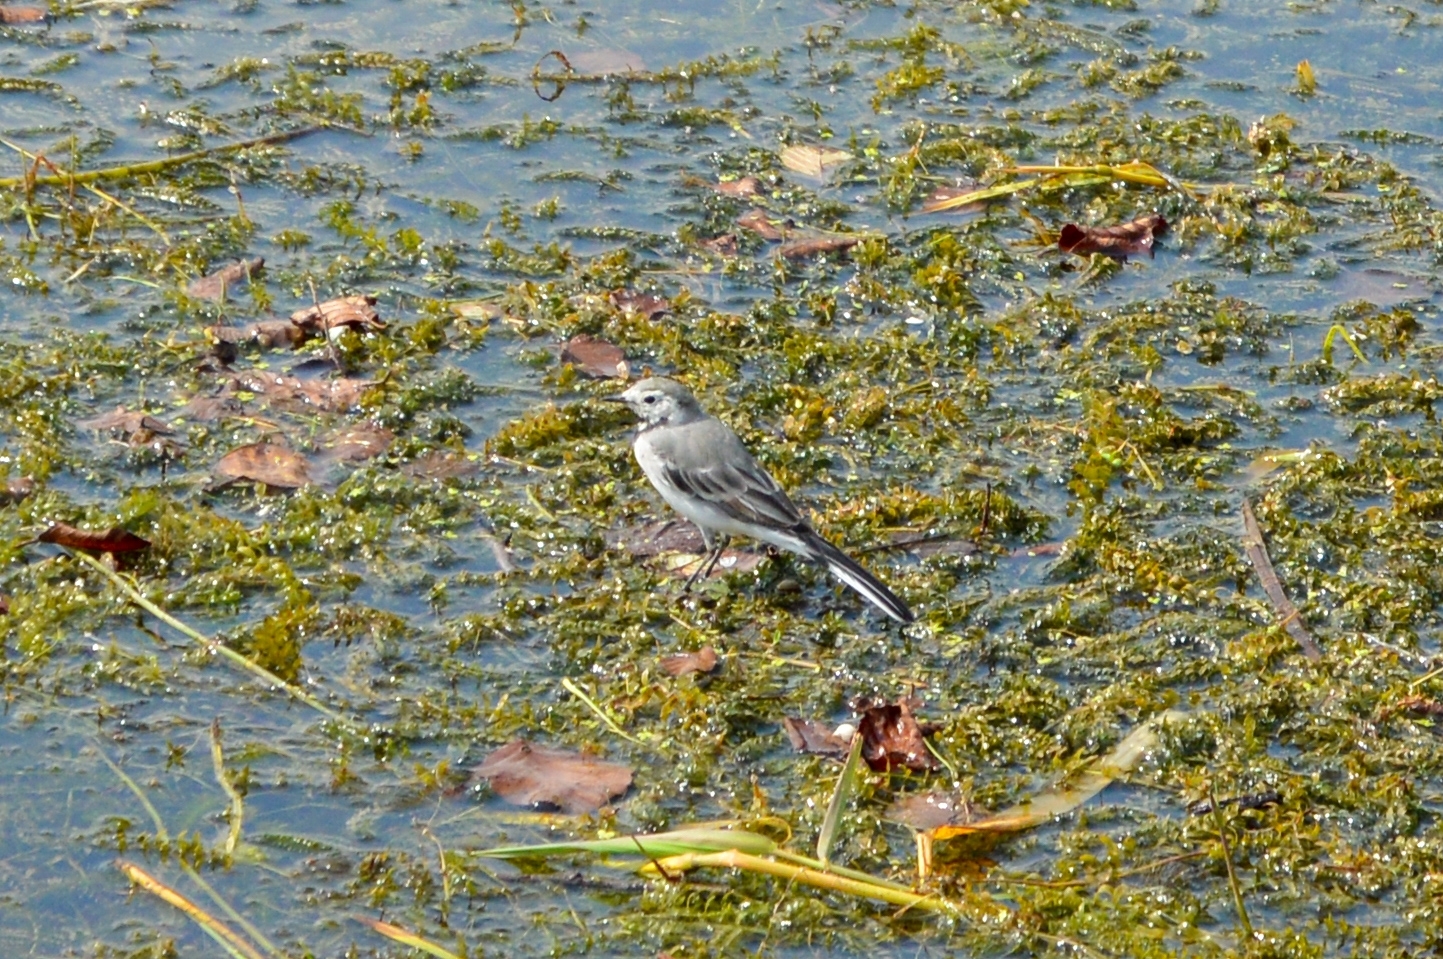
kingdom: Animalia
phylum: Chordata
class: Aves
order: Passeriformes
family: Motacillidae
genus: Motacilla
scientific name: Motacilla alba
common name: White wagtail
